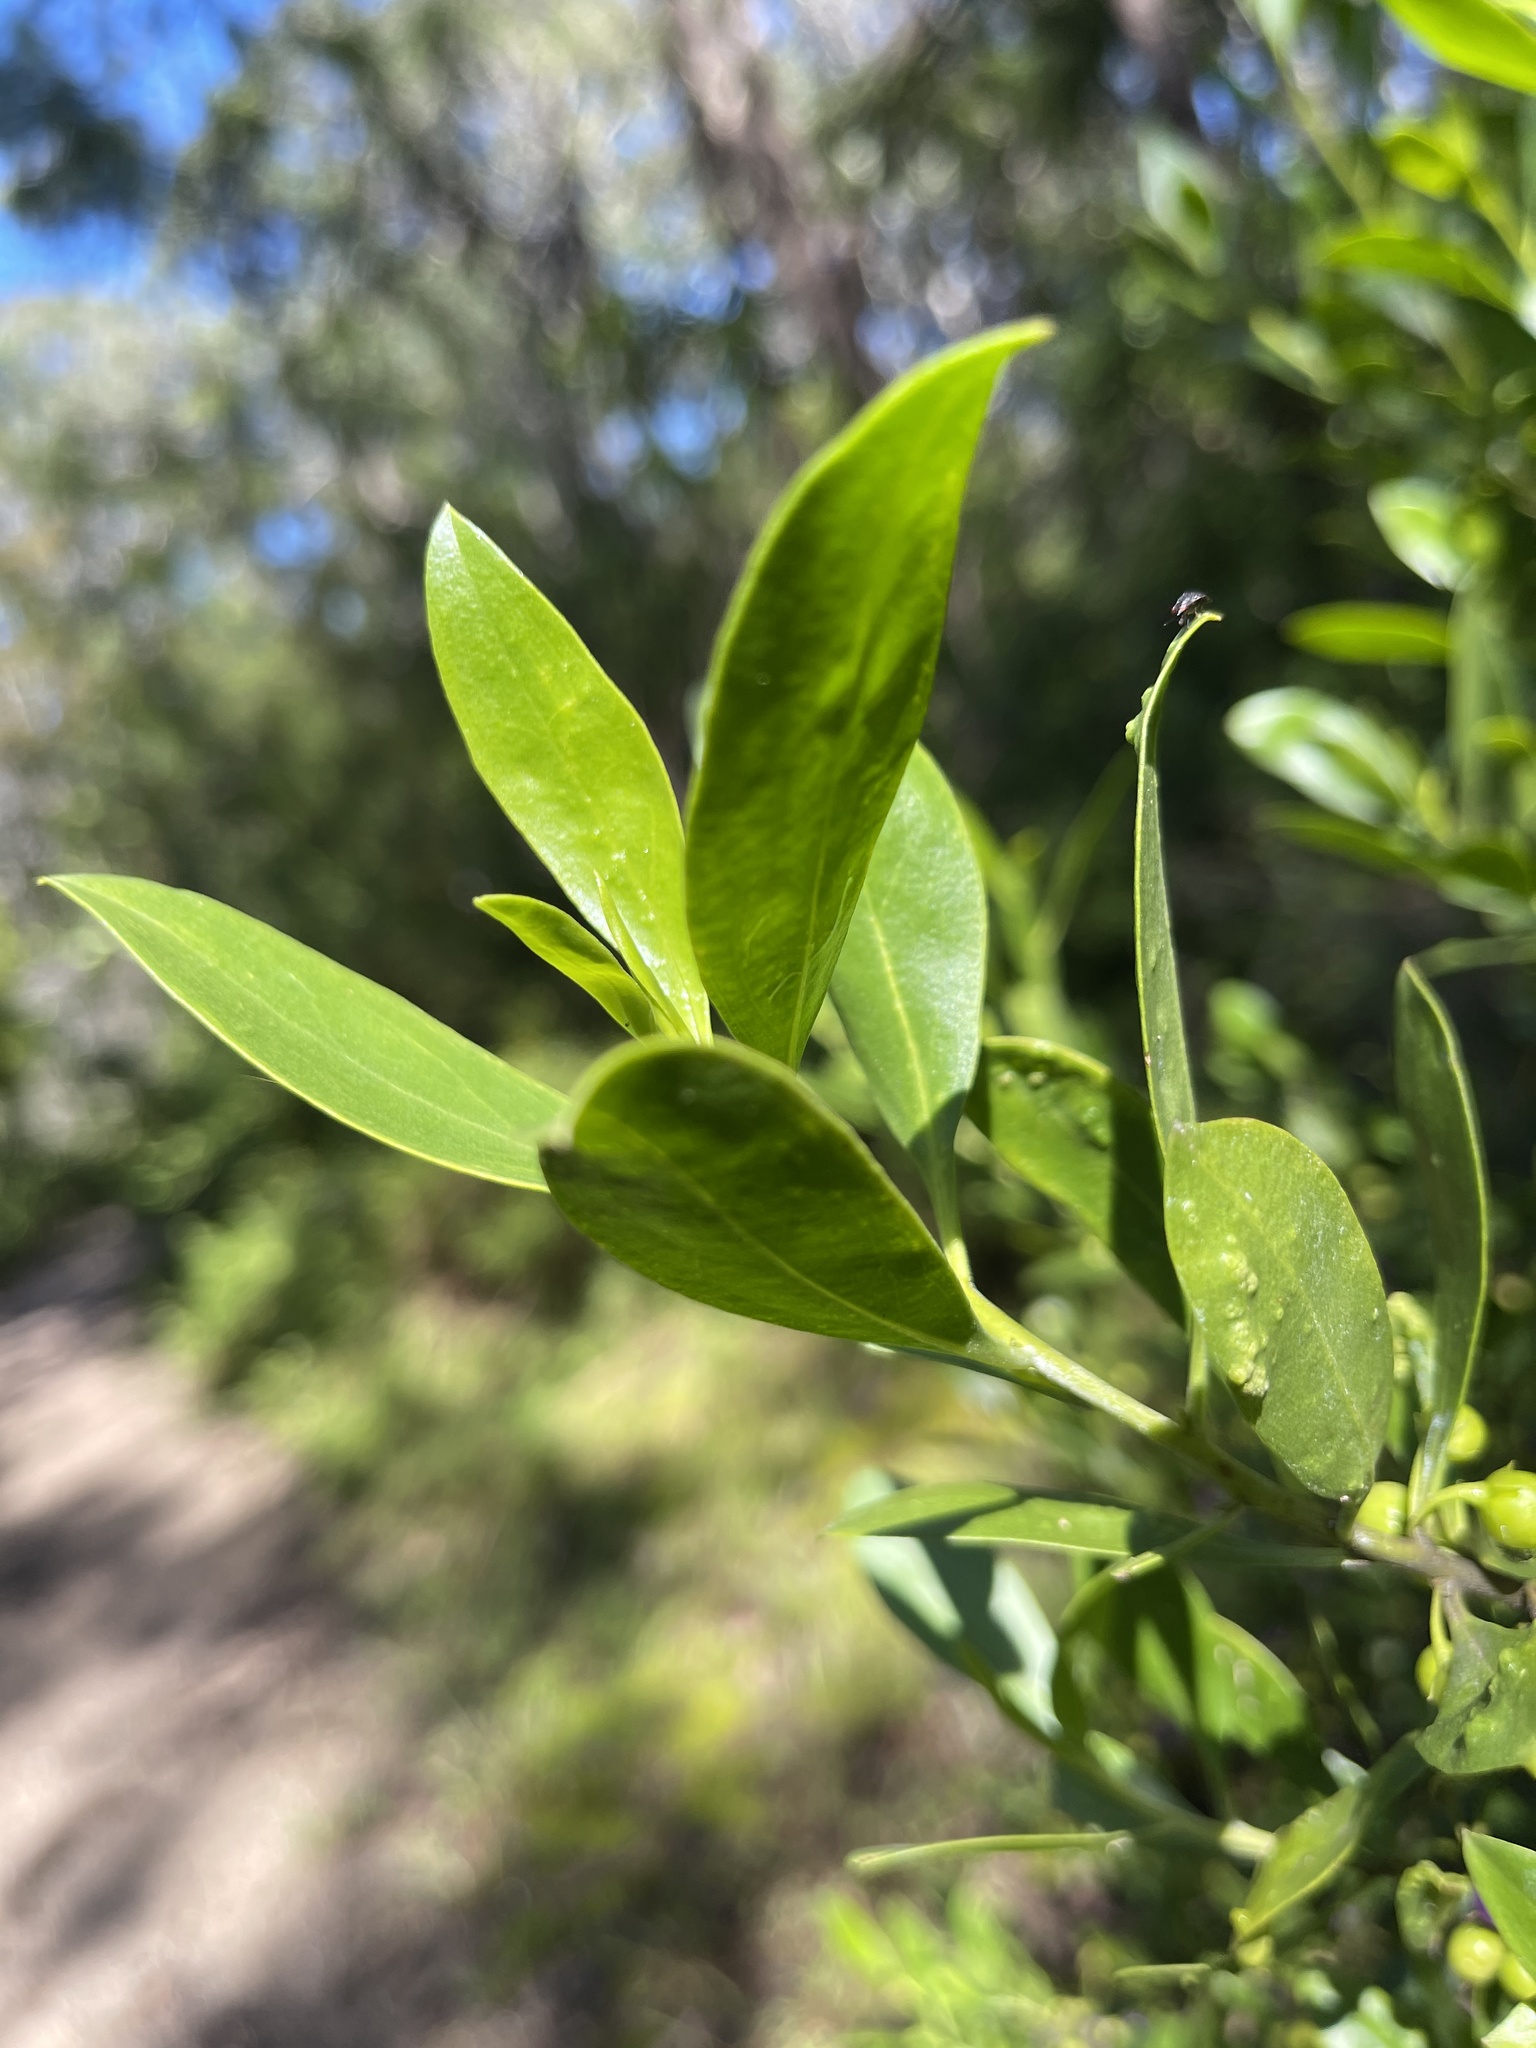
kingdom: Plantae
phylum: Tracheophyta
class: Magnoliopsida
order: Lamiales
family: Scrophulariaceae
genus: Myoporum
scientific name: Myoporum boninense
